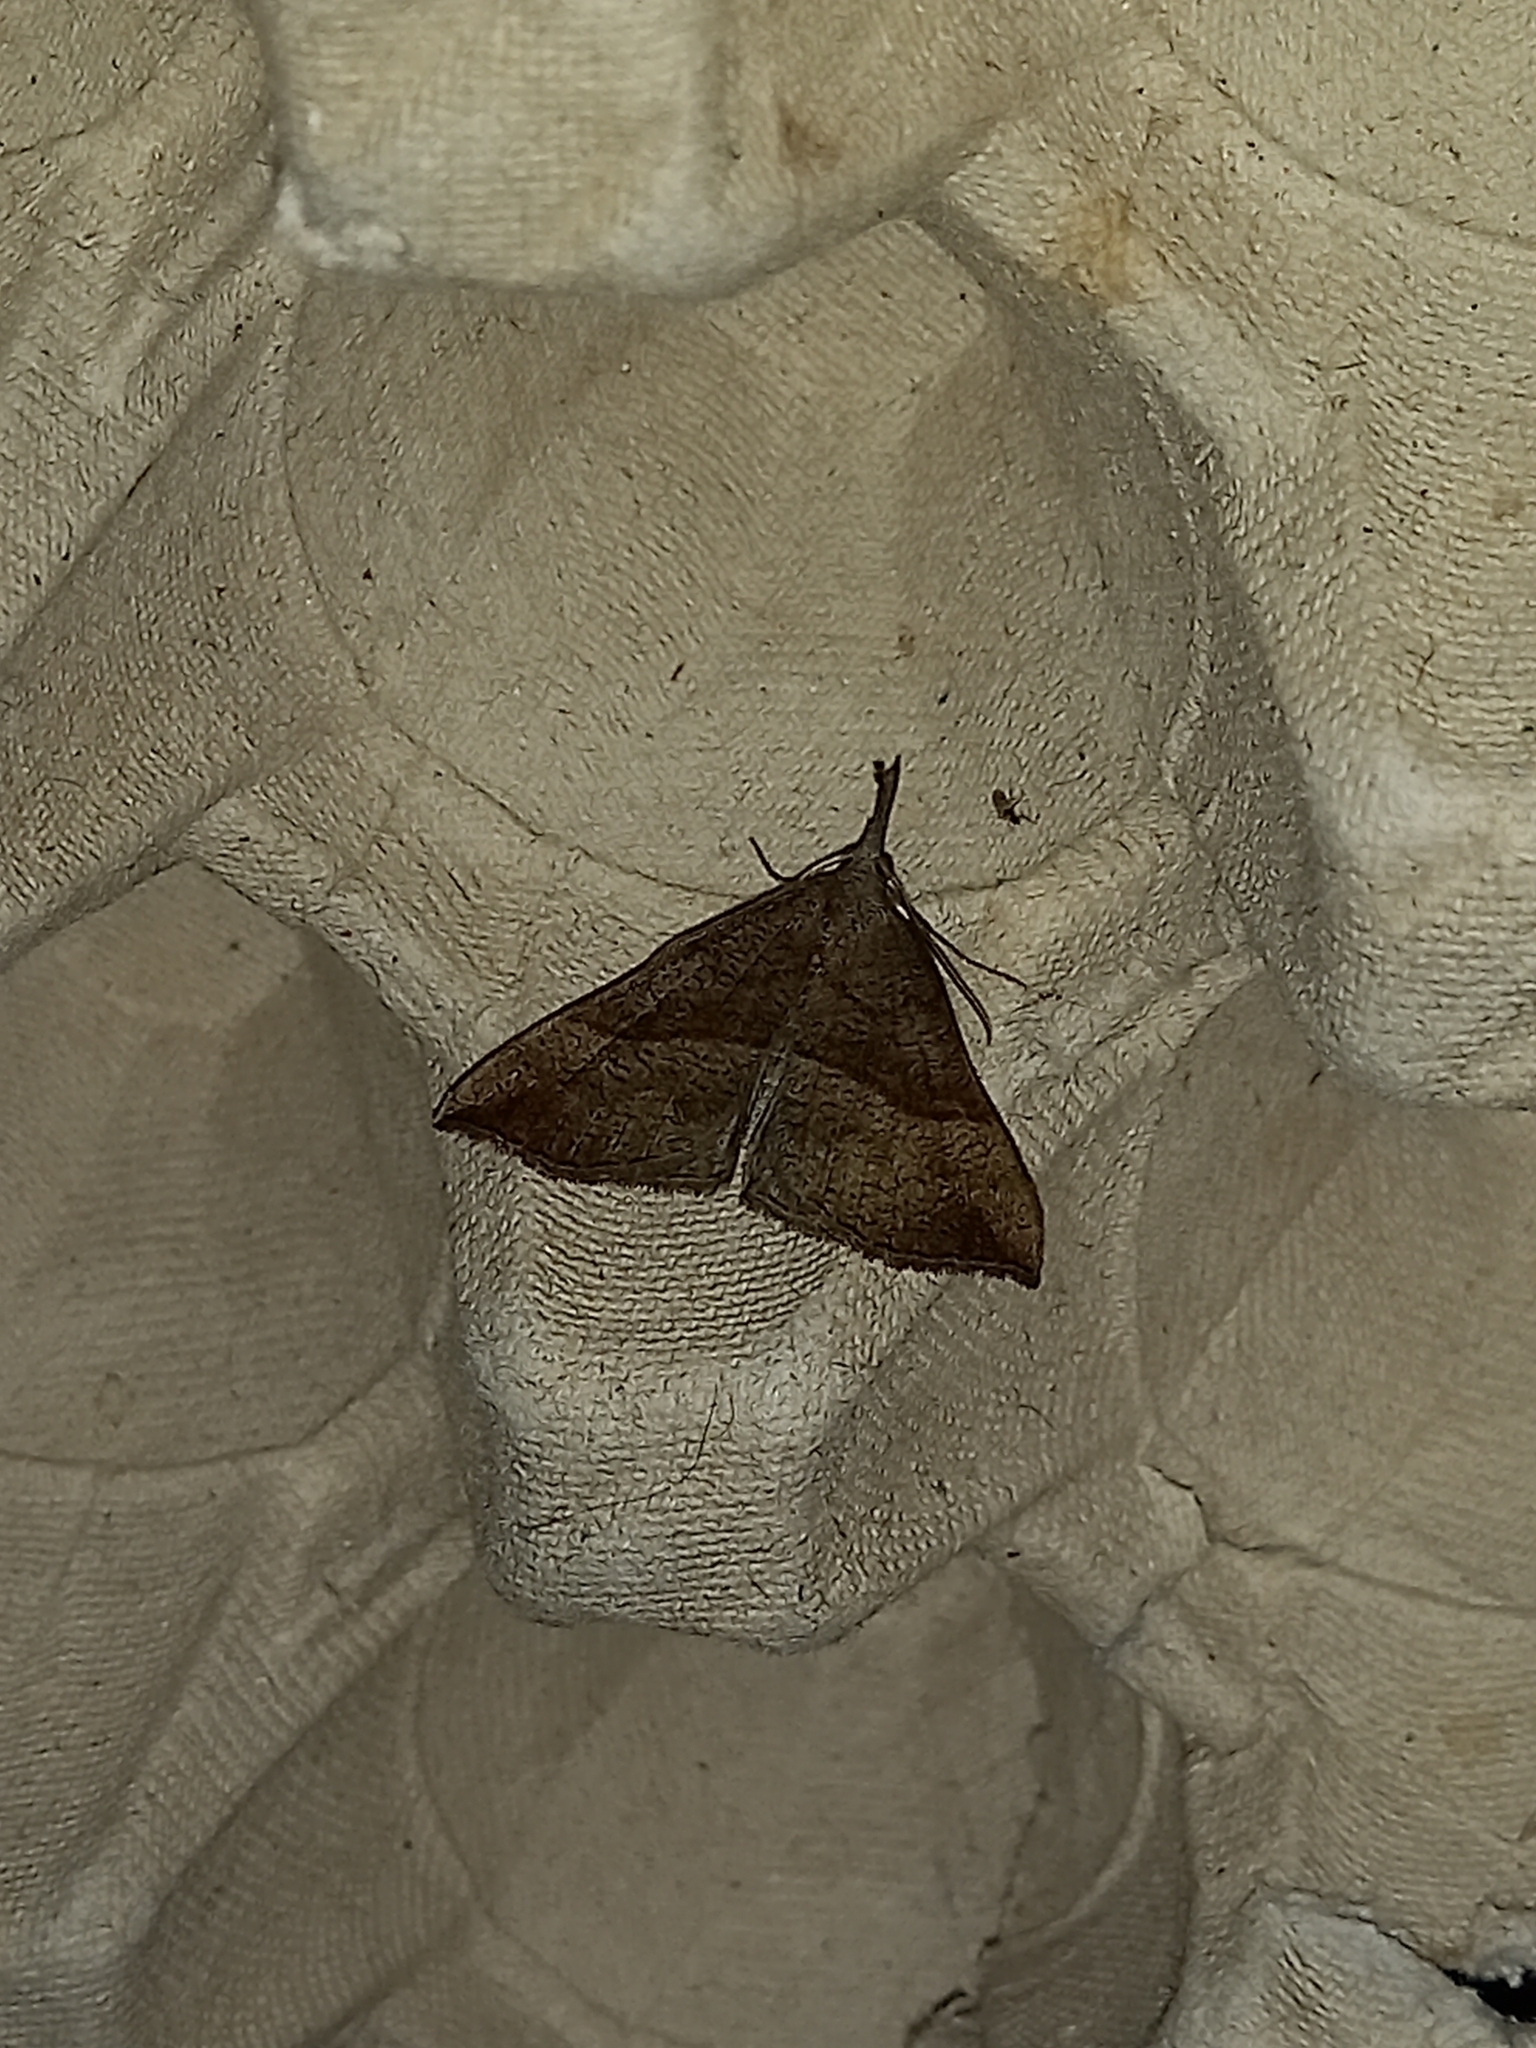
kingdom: Animalia
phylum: Arthropoda
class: Insecta
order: Lepidoptera
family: Erebidae
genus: Hypena
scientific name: Hypena proboscidalis
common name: Snout
